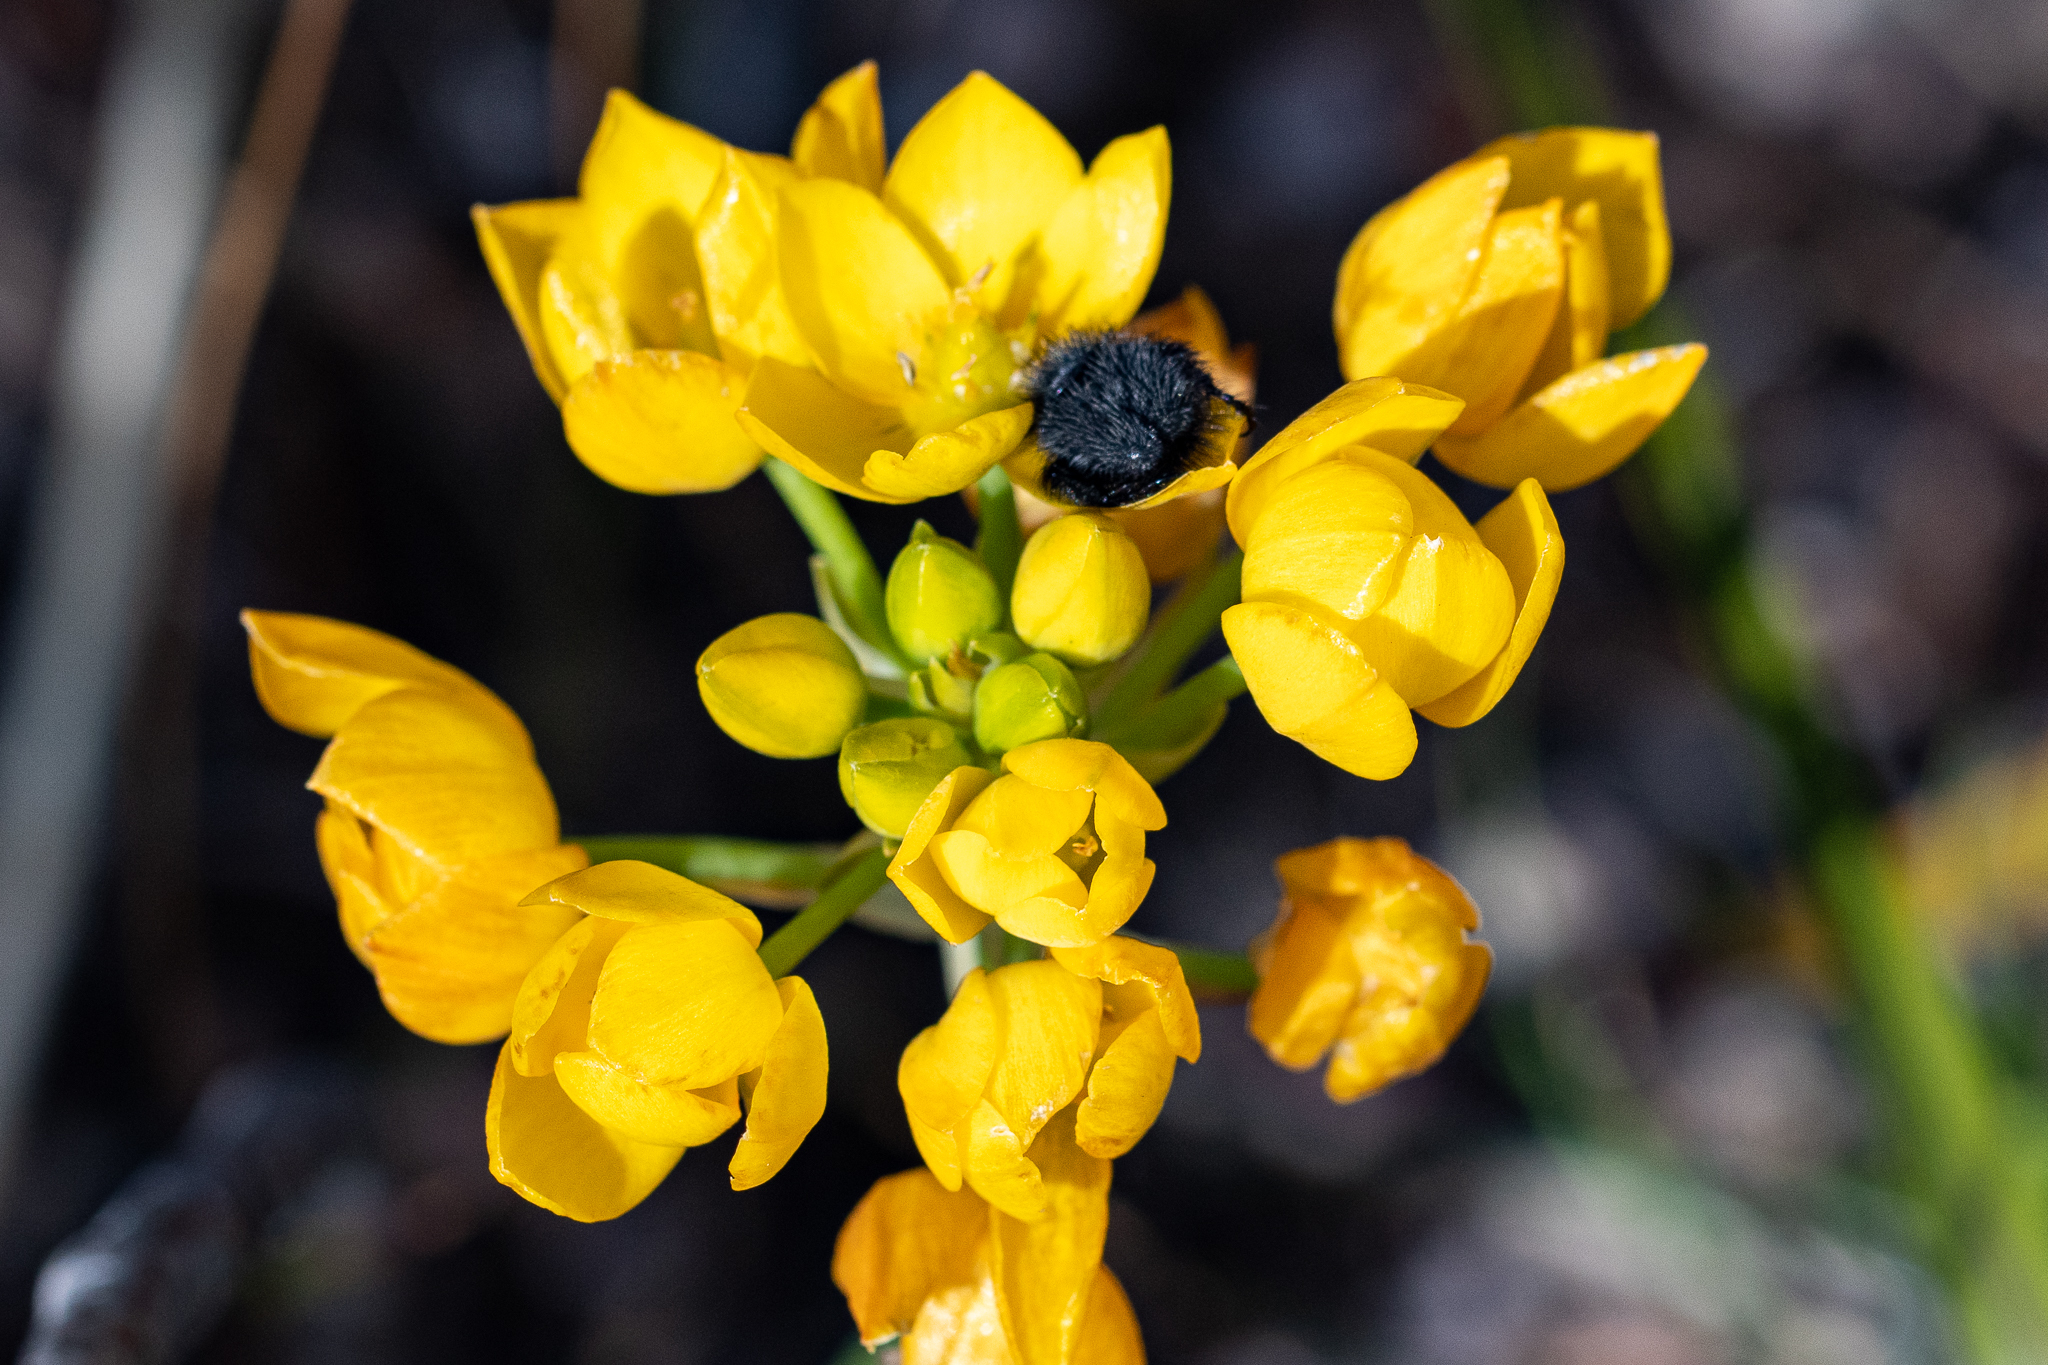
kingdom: Plantae
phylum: Tracheophyta
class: Liliopsida
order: Asparagales
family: Asparagaceae
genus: Ornithogalum
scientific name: Ornithogalum dubium
